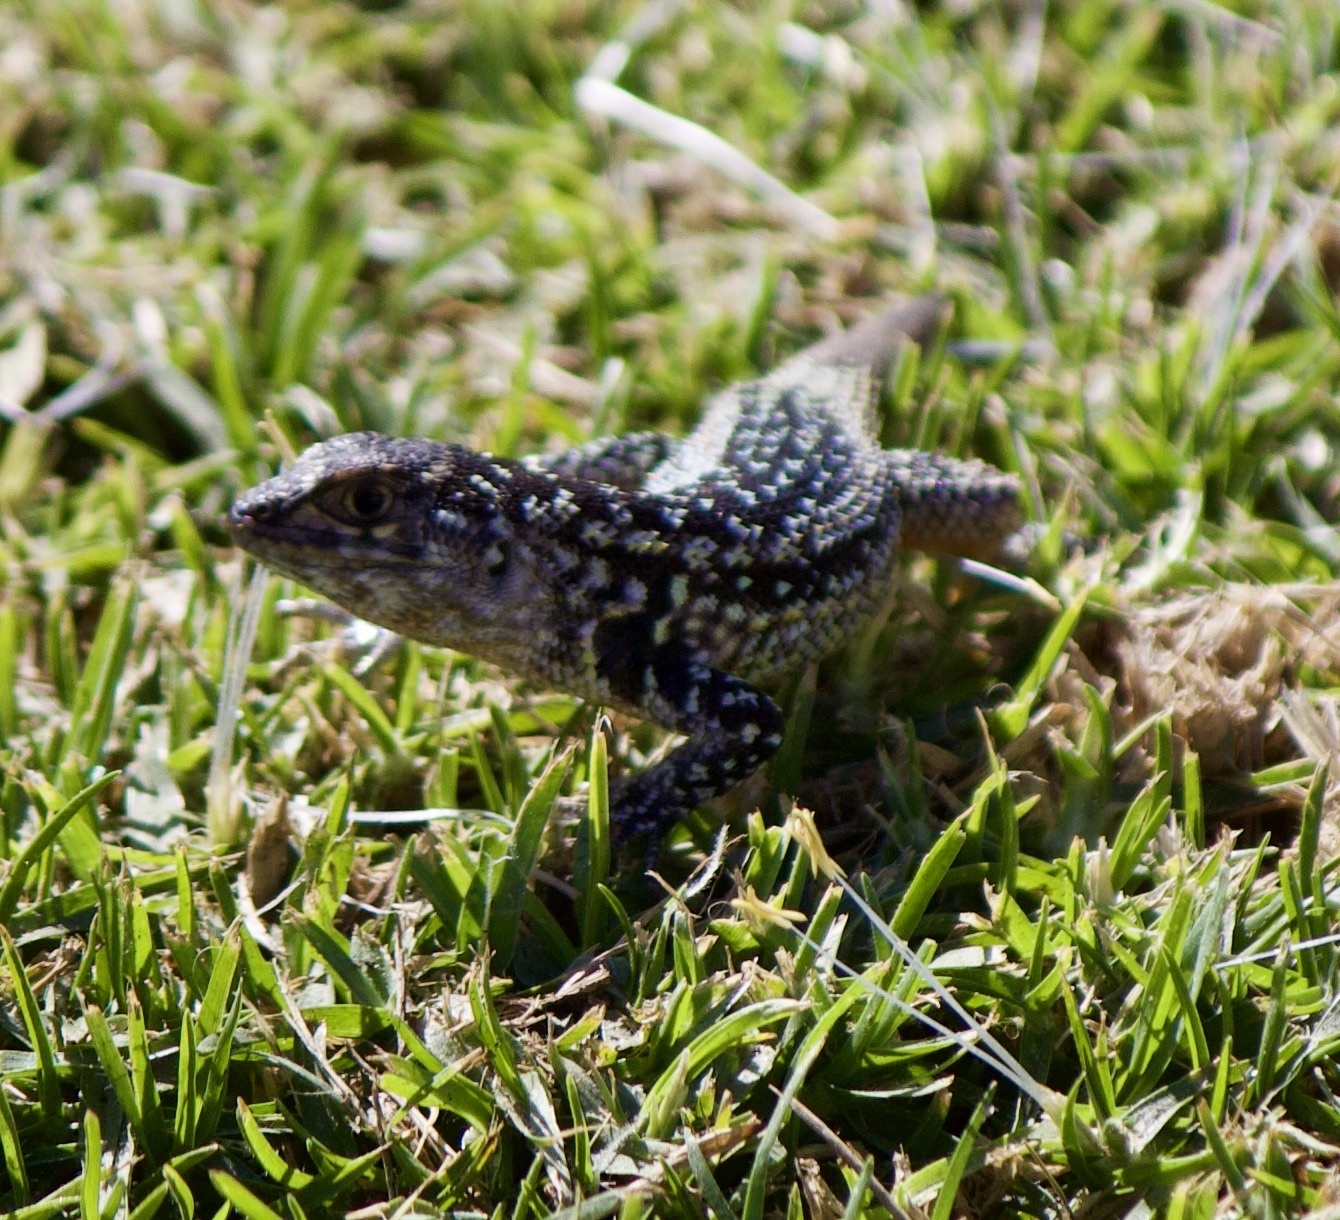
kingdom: Animalia
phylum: Chordata
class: Squamata
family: Liolaemidae
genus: Liolaemus
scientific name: Liolaemus zapallarensis
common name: Zapallaren tree iguana
